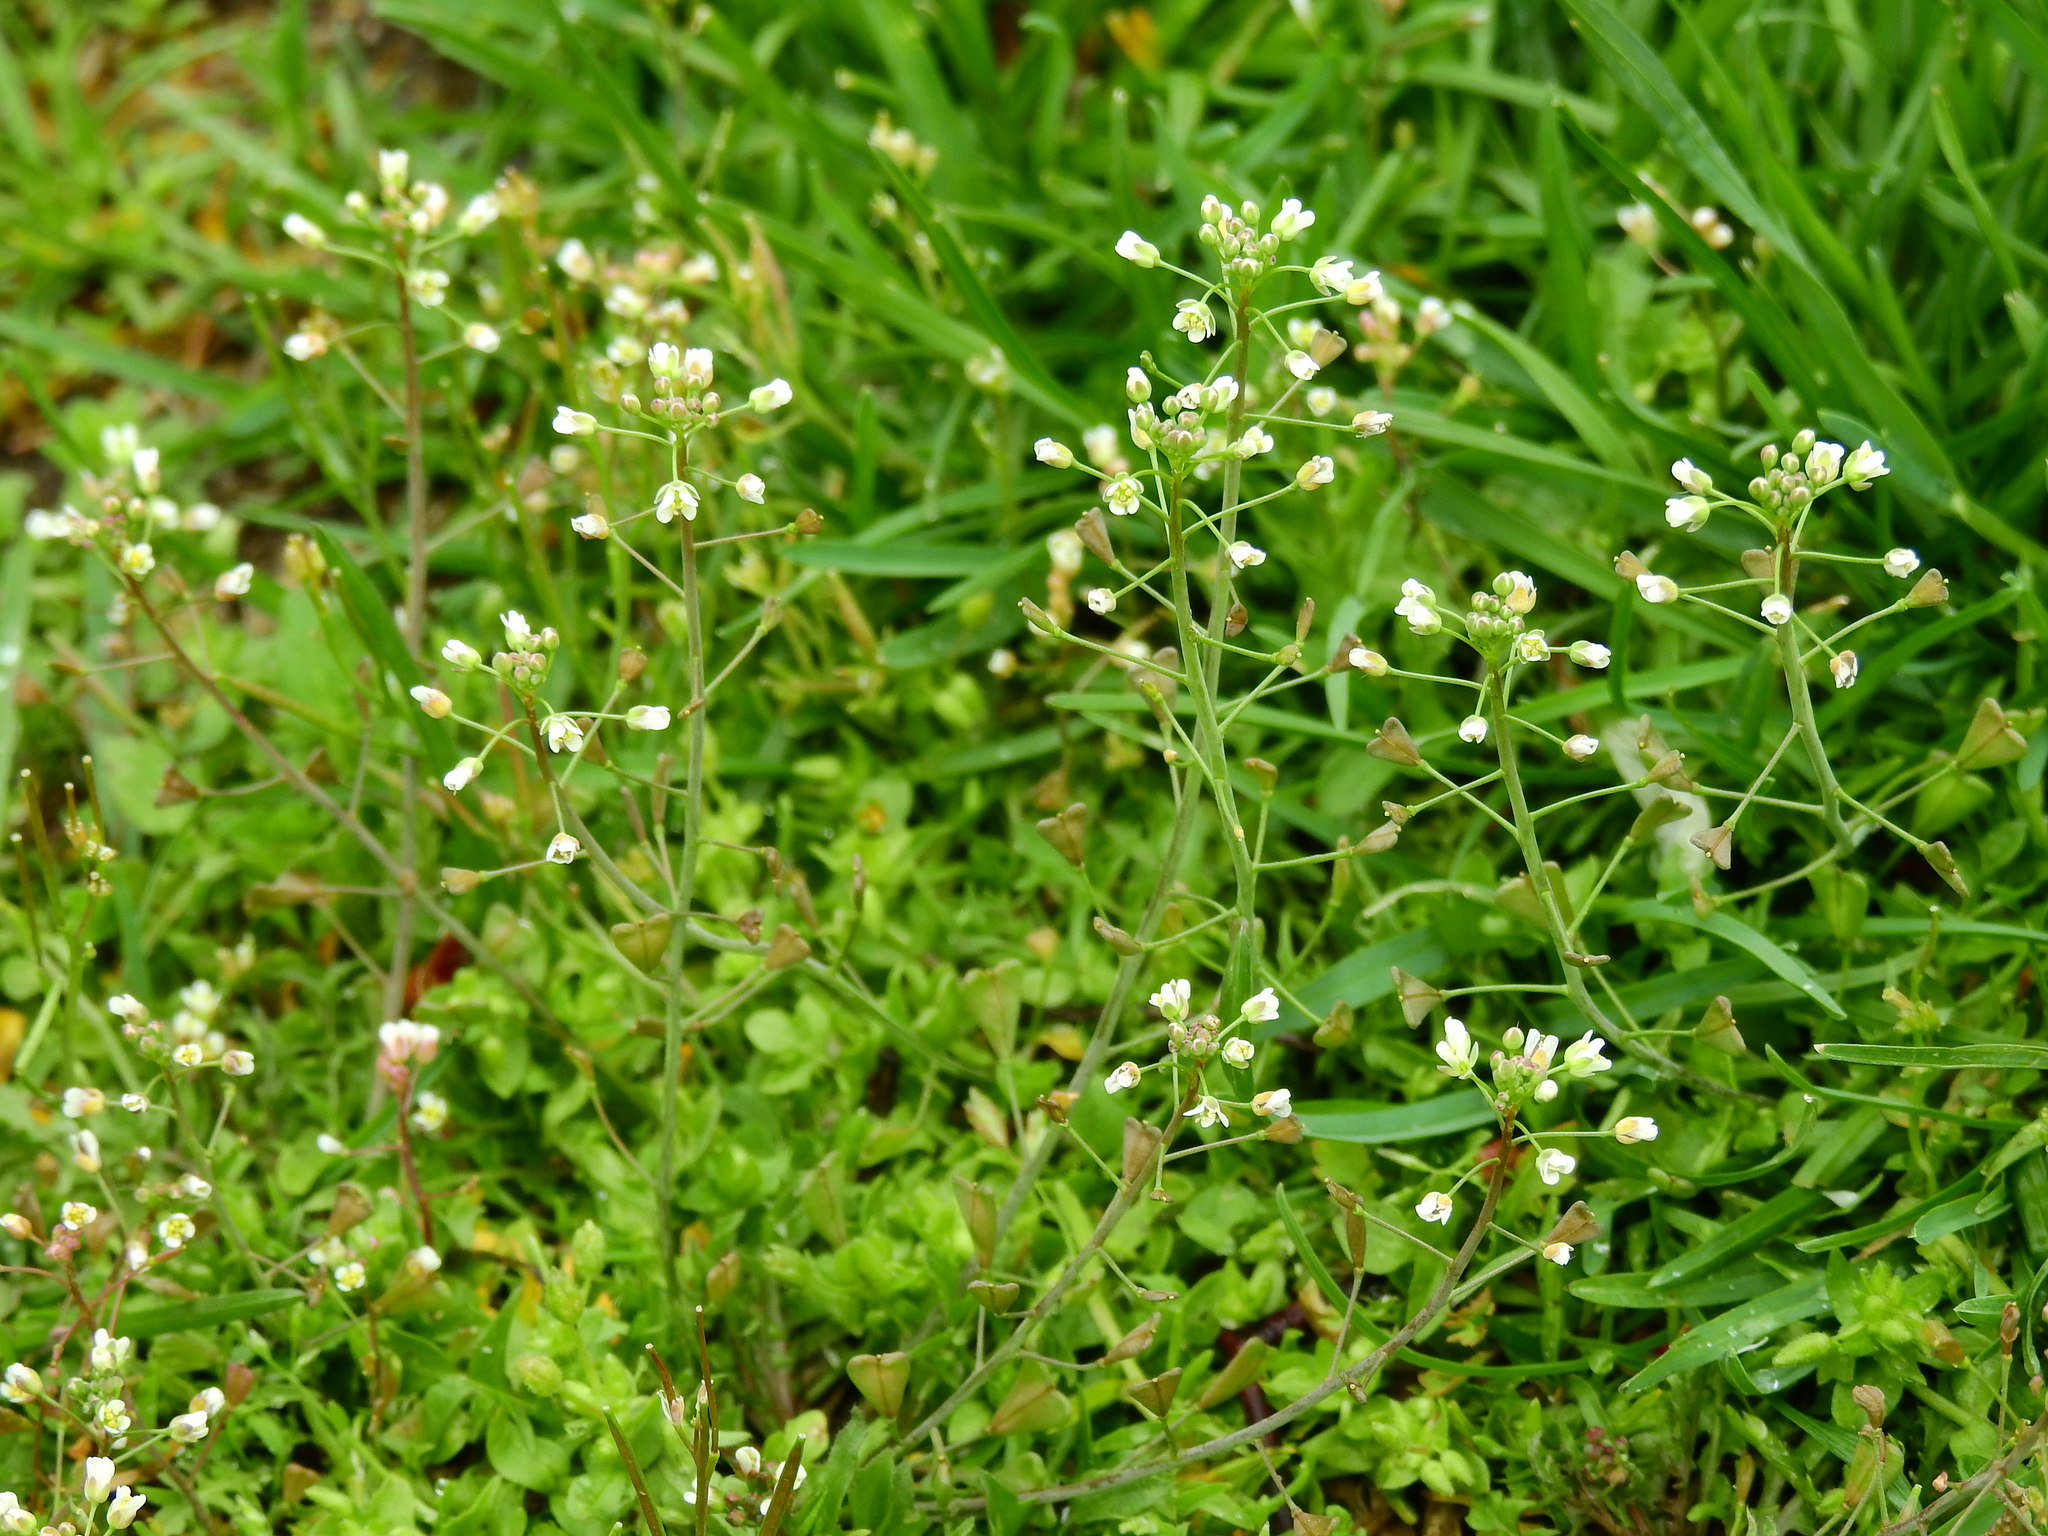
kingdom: Plantae
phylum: Tracheophyta
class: Magnoliopsida
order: Brassicales
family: Brassicaceae
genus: Capsella
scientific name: Capsella bursa-pastoris
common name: Shepherd's purse
